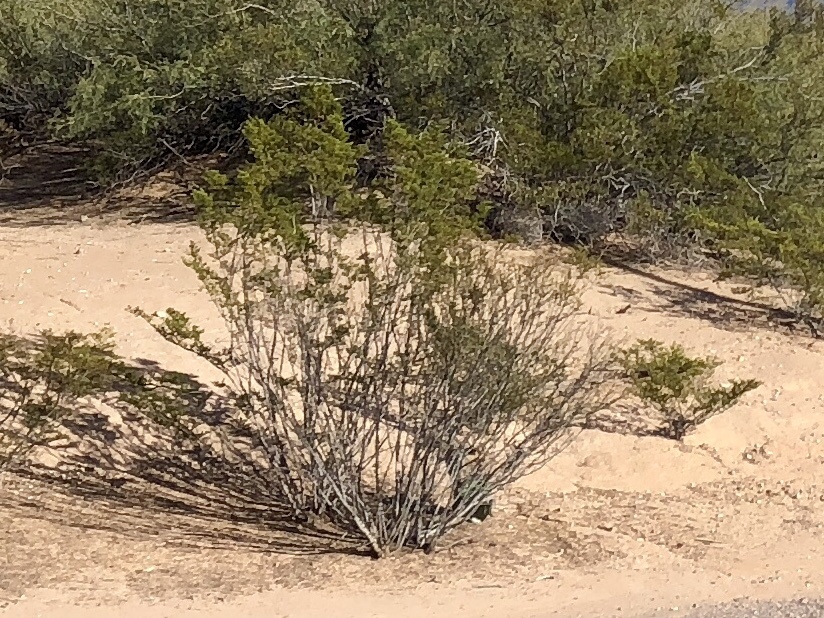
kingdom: Plantae
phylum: Tracheophyta
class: Magnoliopsida
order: Zygophyllales
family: Zygophyllaceae
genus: Larrea
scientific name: Larrea tridentata
